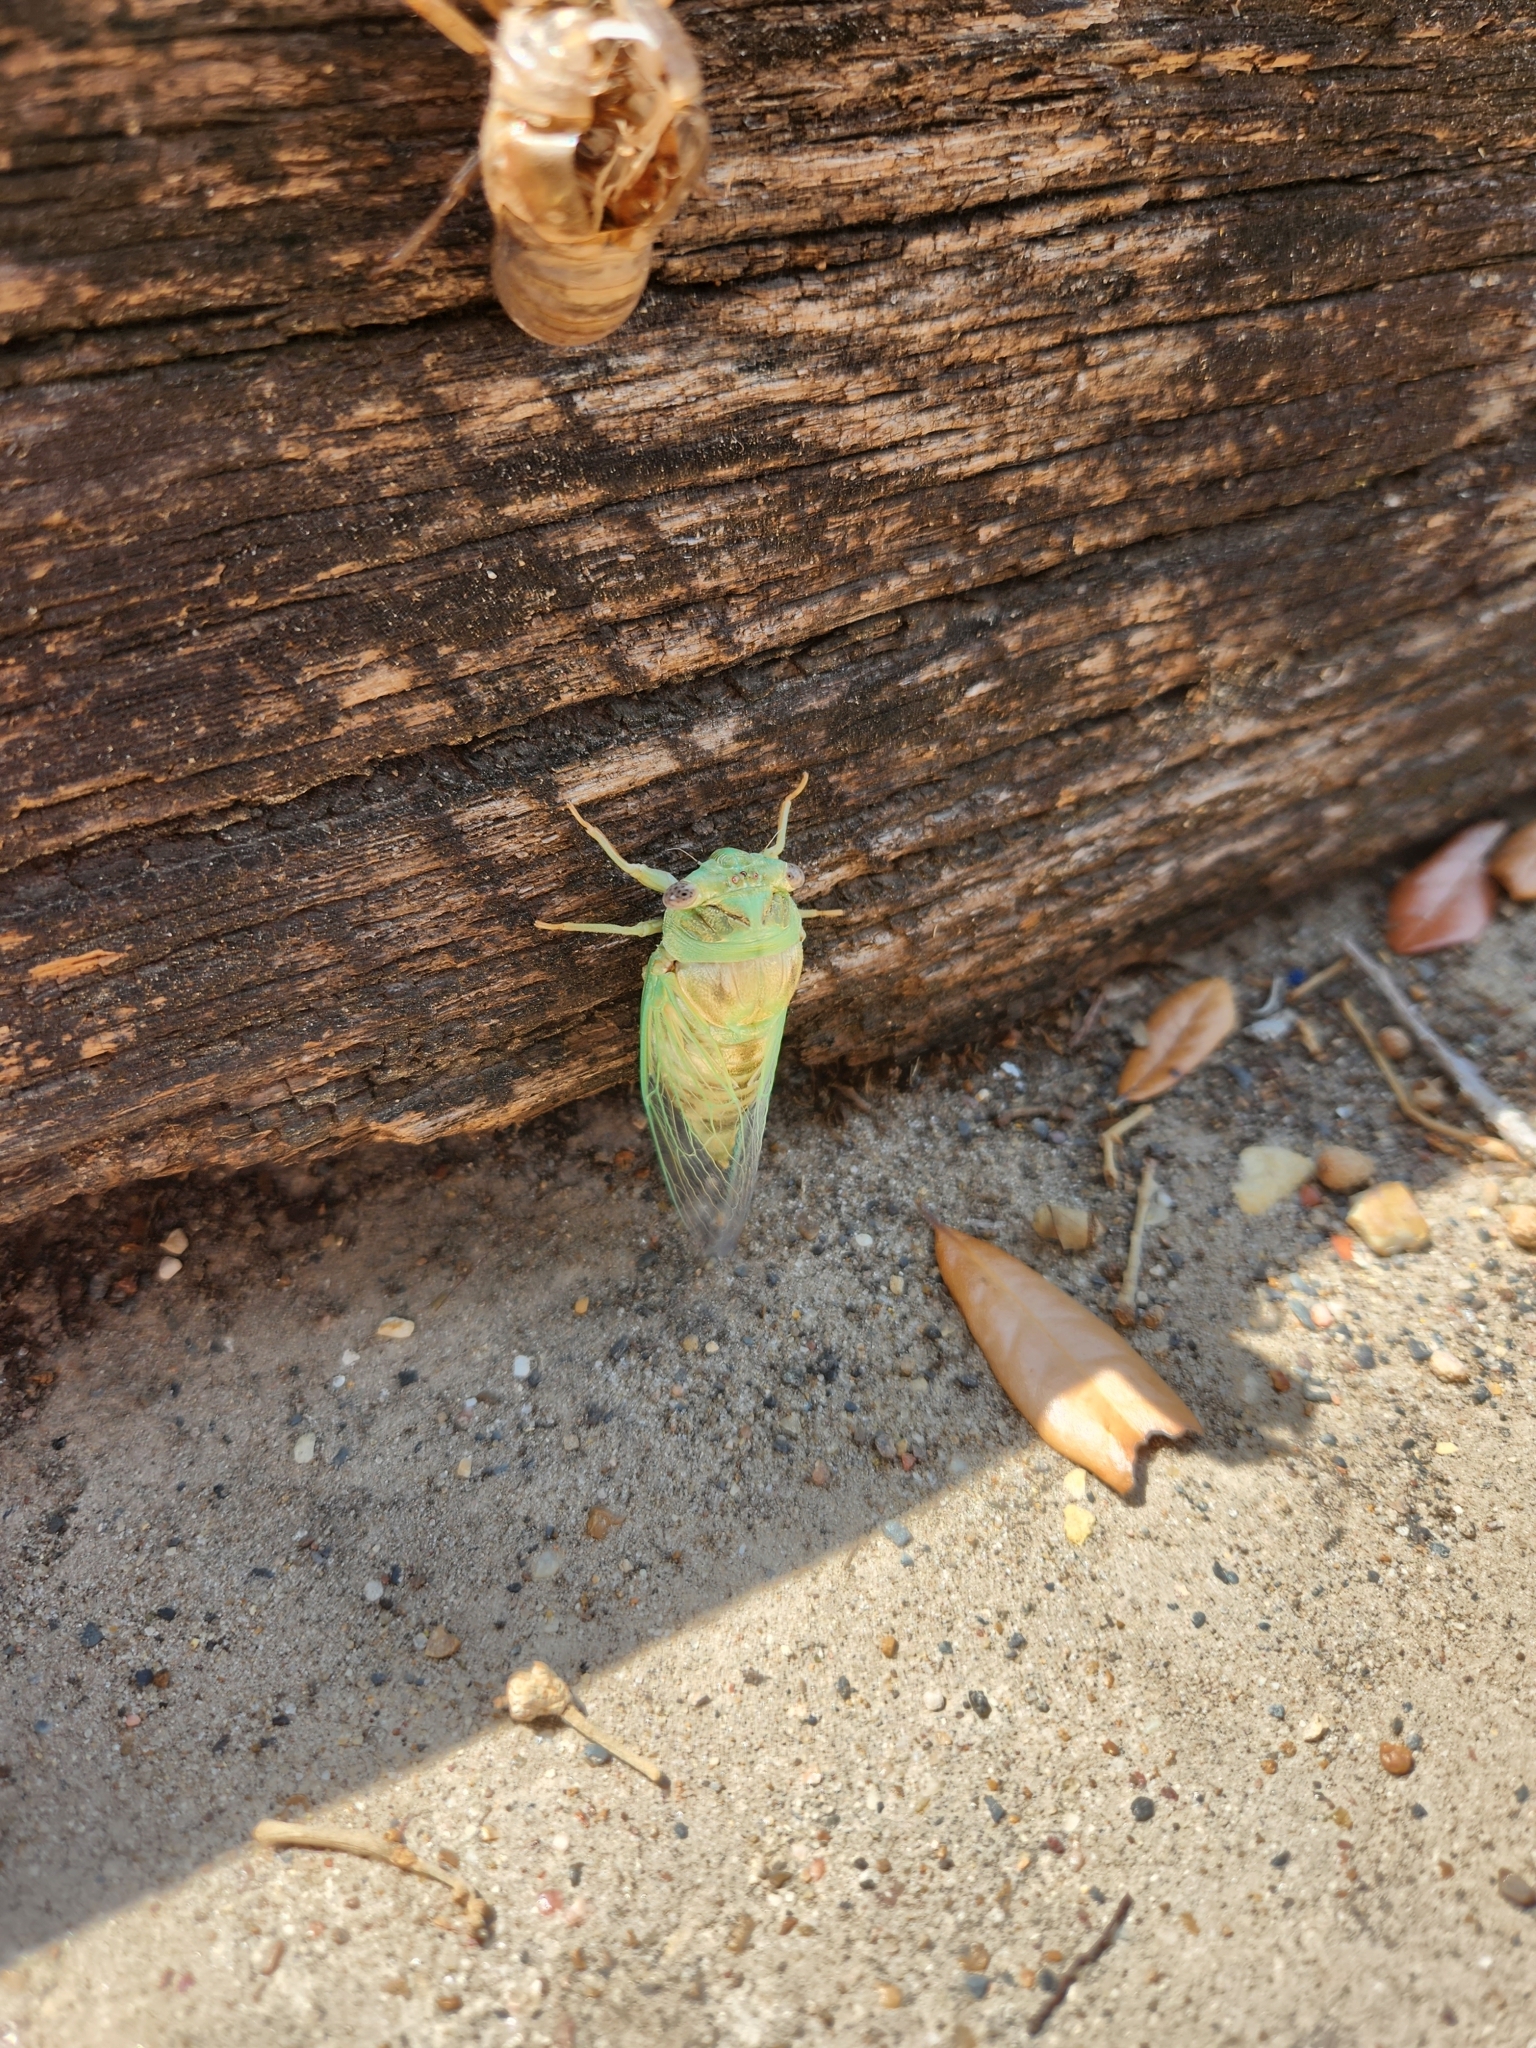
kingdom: Animalia
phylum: Arthropoda
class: Insecta
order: Hemiptera
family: Cicadidae
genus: Megatibicen
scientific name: Megatibicen resh
